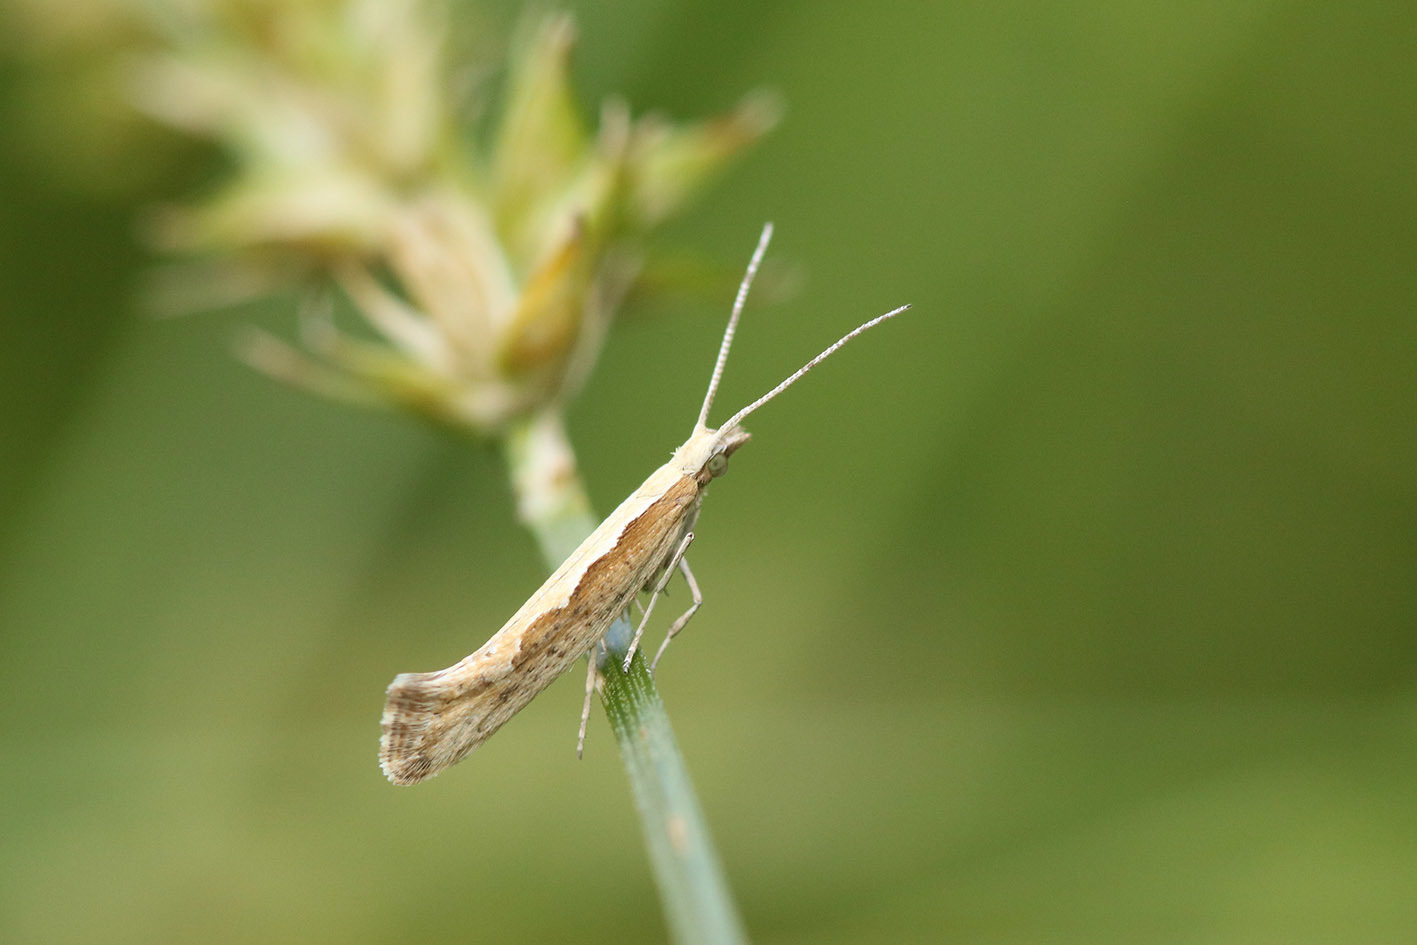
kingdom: Animalia
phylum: Arthropoda
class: Insecta
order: Lepidoptera
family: Plutellidae
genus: Plutella
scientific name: Plutella xylostella
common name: Diamond-back moth
